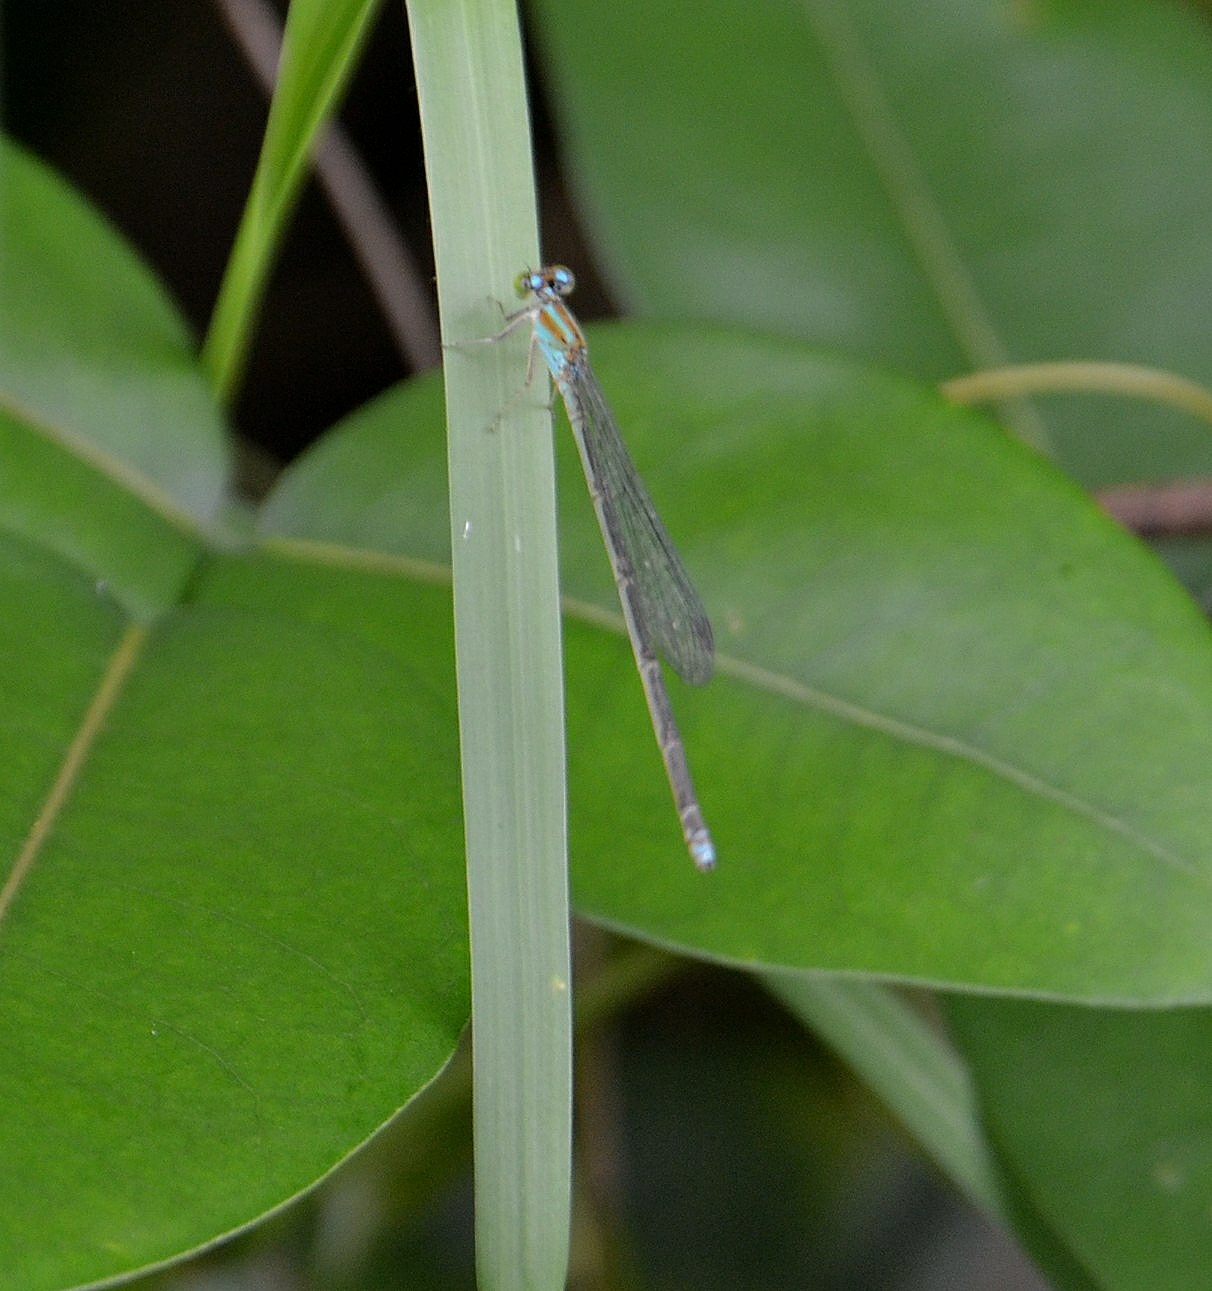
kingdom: Animalia
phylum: Arthropoda
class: Insecta
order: Odonata
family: Coenagrionidae
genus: Pseudagrion
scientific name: Pseudagrion microcephalum
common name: Blue riverdamsel
